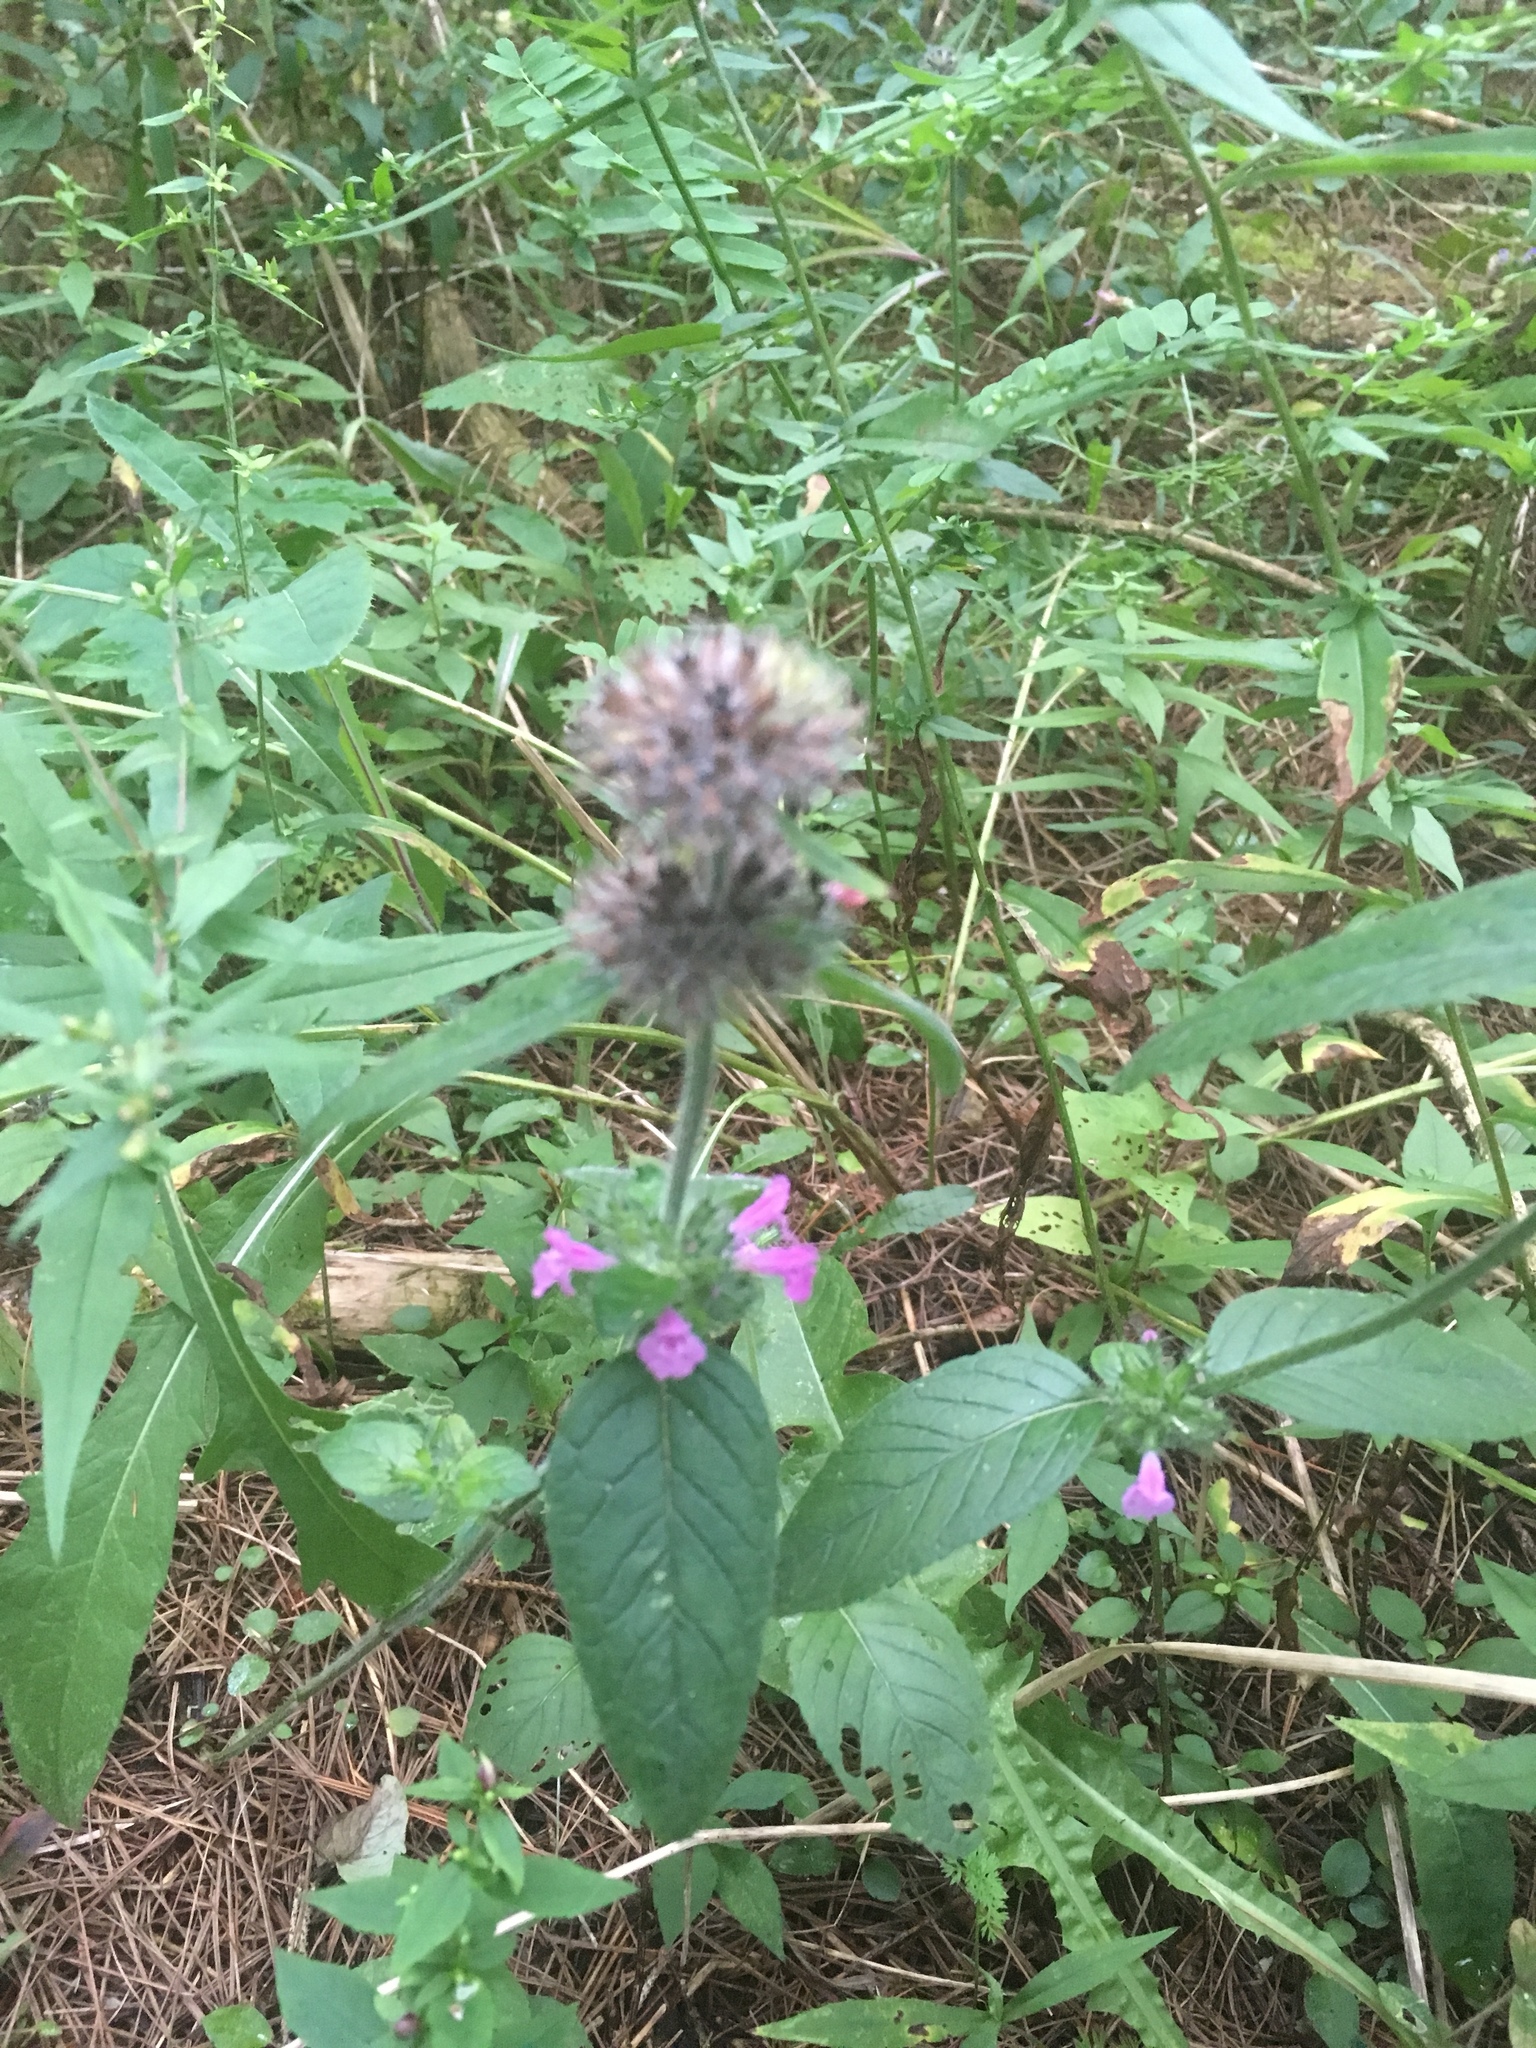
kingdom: Plantae
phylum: Tracheophyta
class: Magnoliopsida
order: Lamiales
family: Lamiaceae
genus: Clinopodium
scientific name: Clinopodium vulgare
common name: Wild basil
